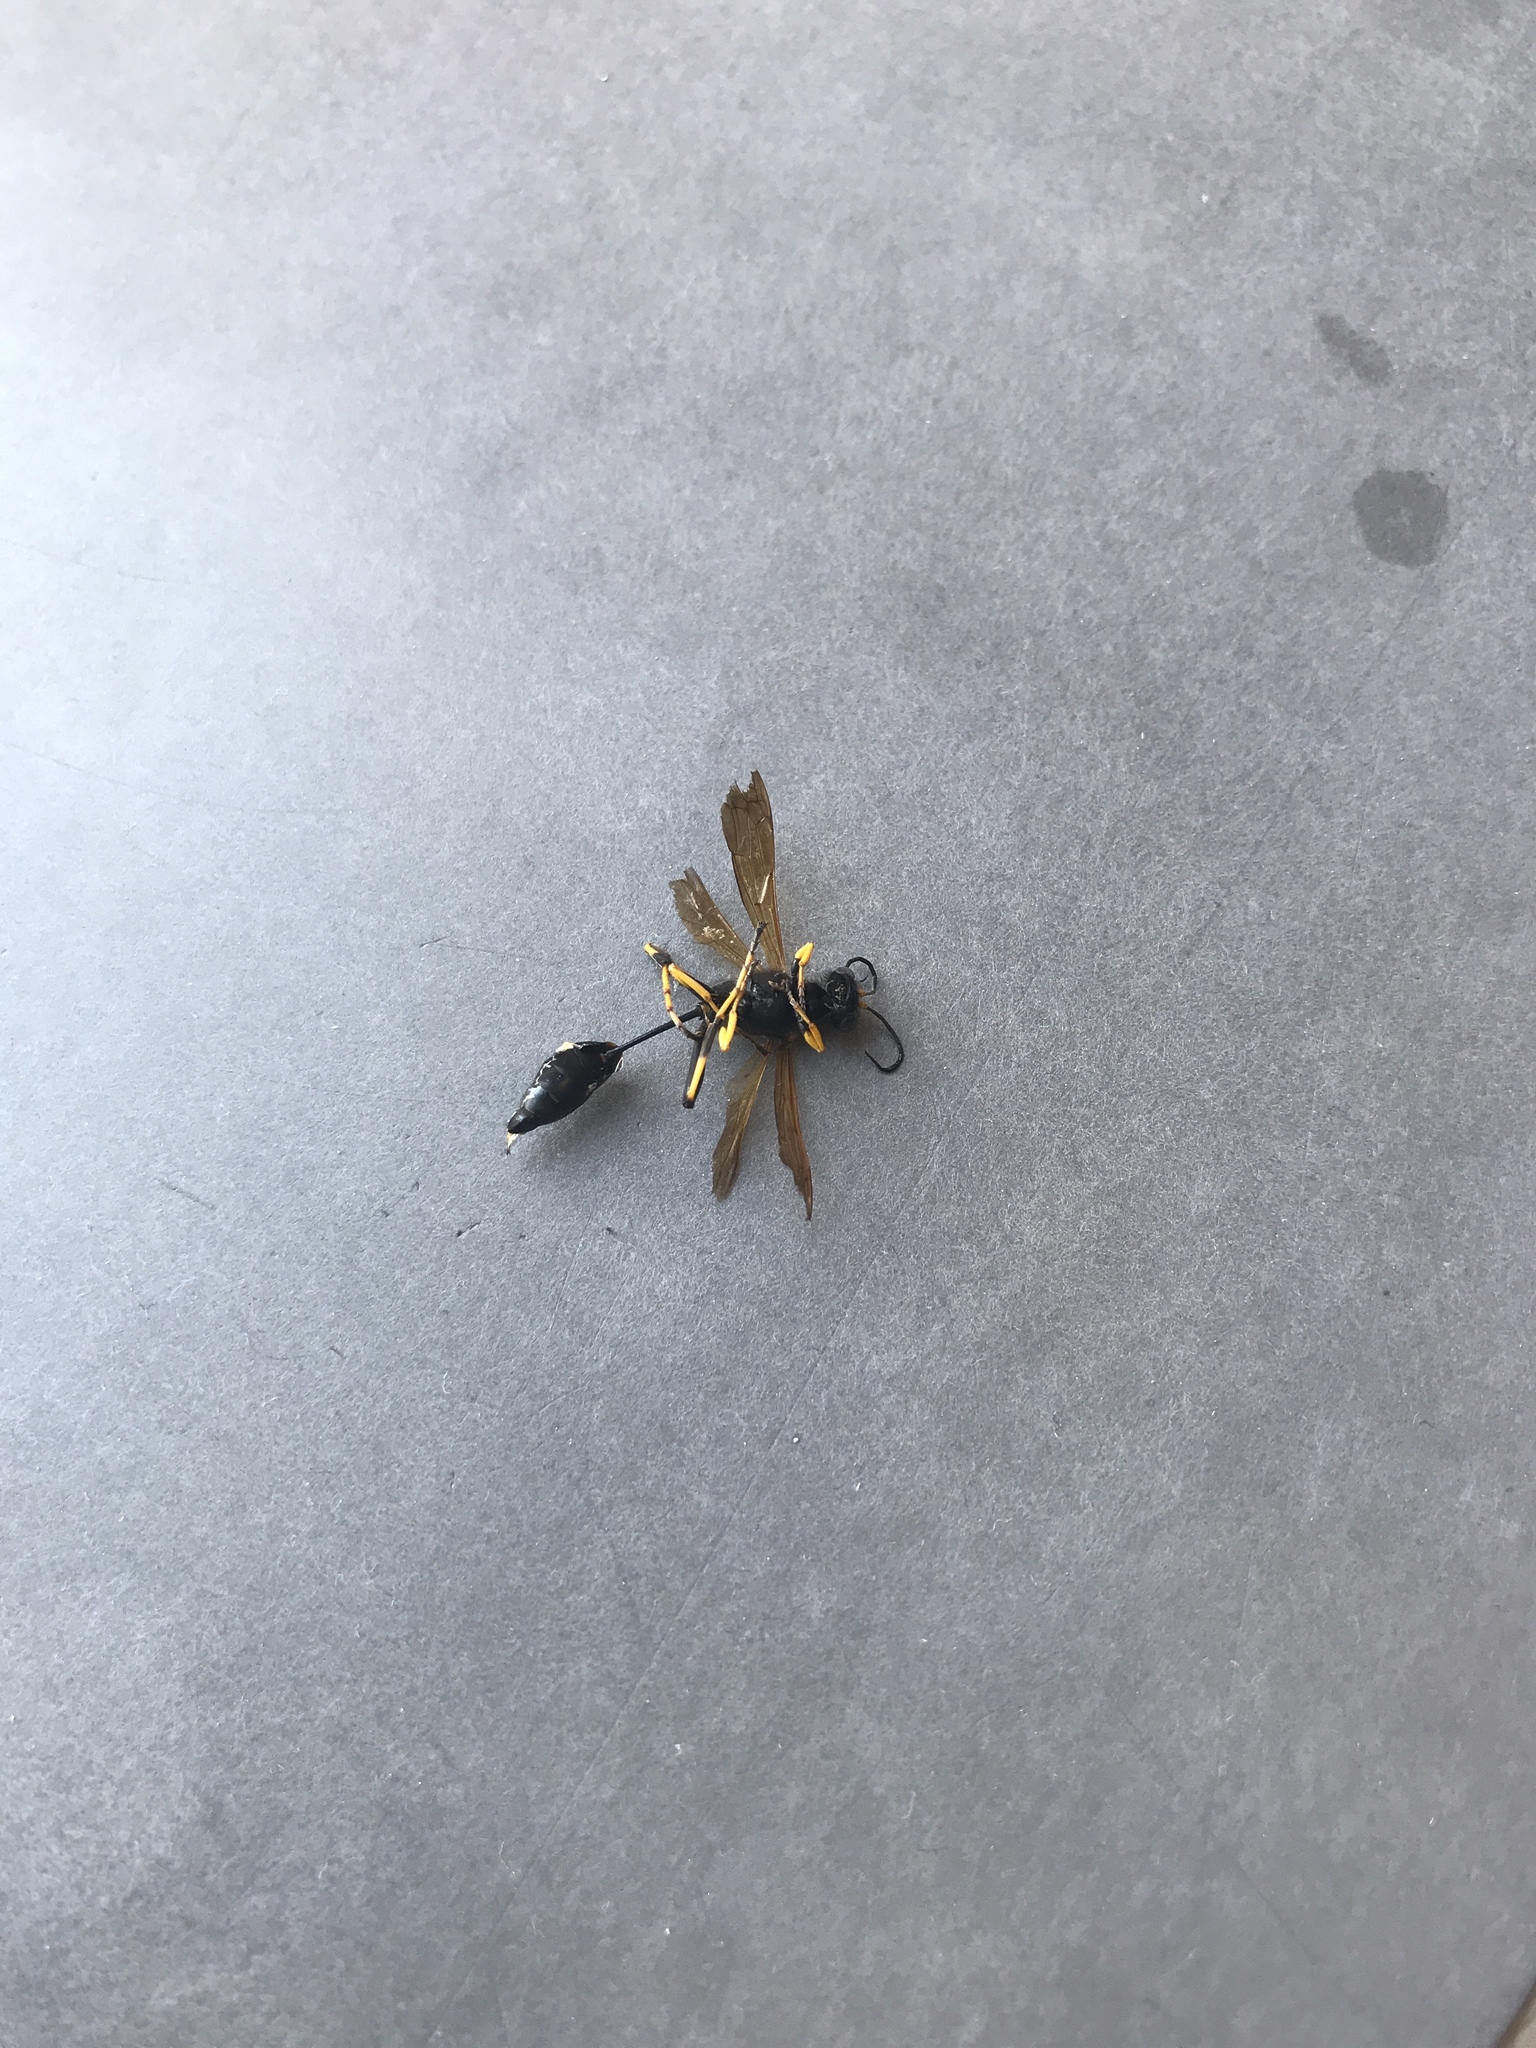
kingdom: Animalia
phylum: Arthropoda
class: Insecta
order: Hymenoptera
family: Sphecidae
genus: Sceliphron
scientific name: Sceliphron caementarium
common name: Mud dauber
